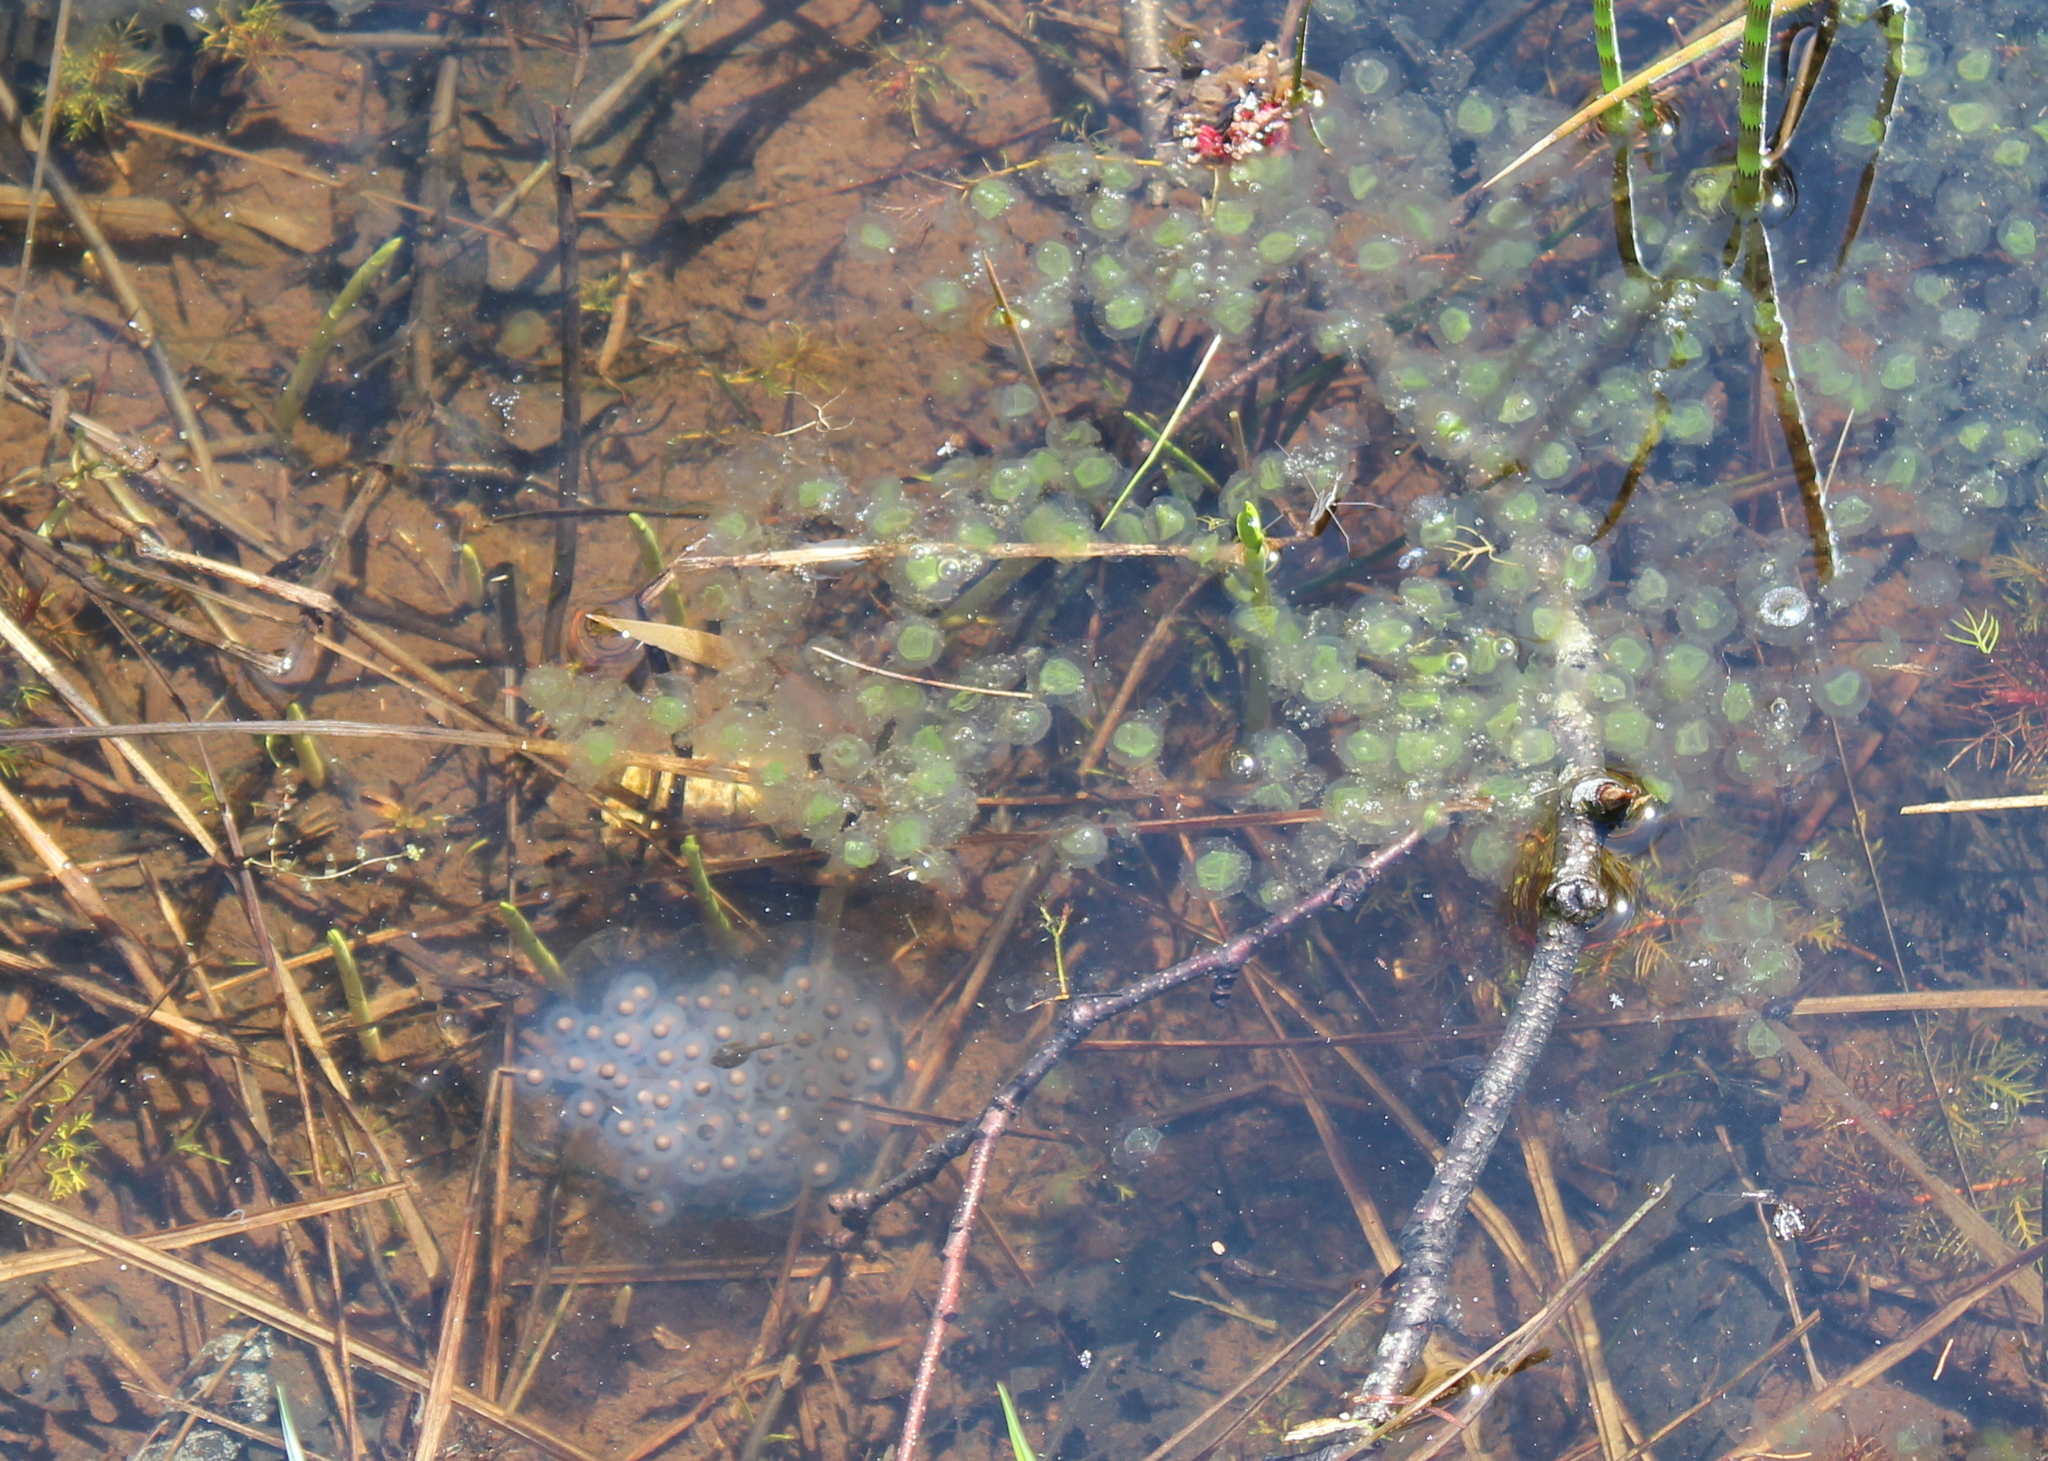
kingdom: Animalia
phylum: Chordata
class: Amphibia
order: Caudata
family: Ambystomatidae
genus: Ambystoma
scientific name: Ambystoma maculatum
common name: Spotted salamander
